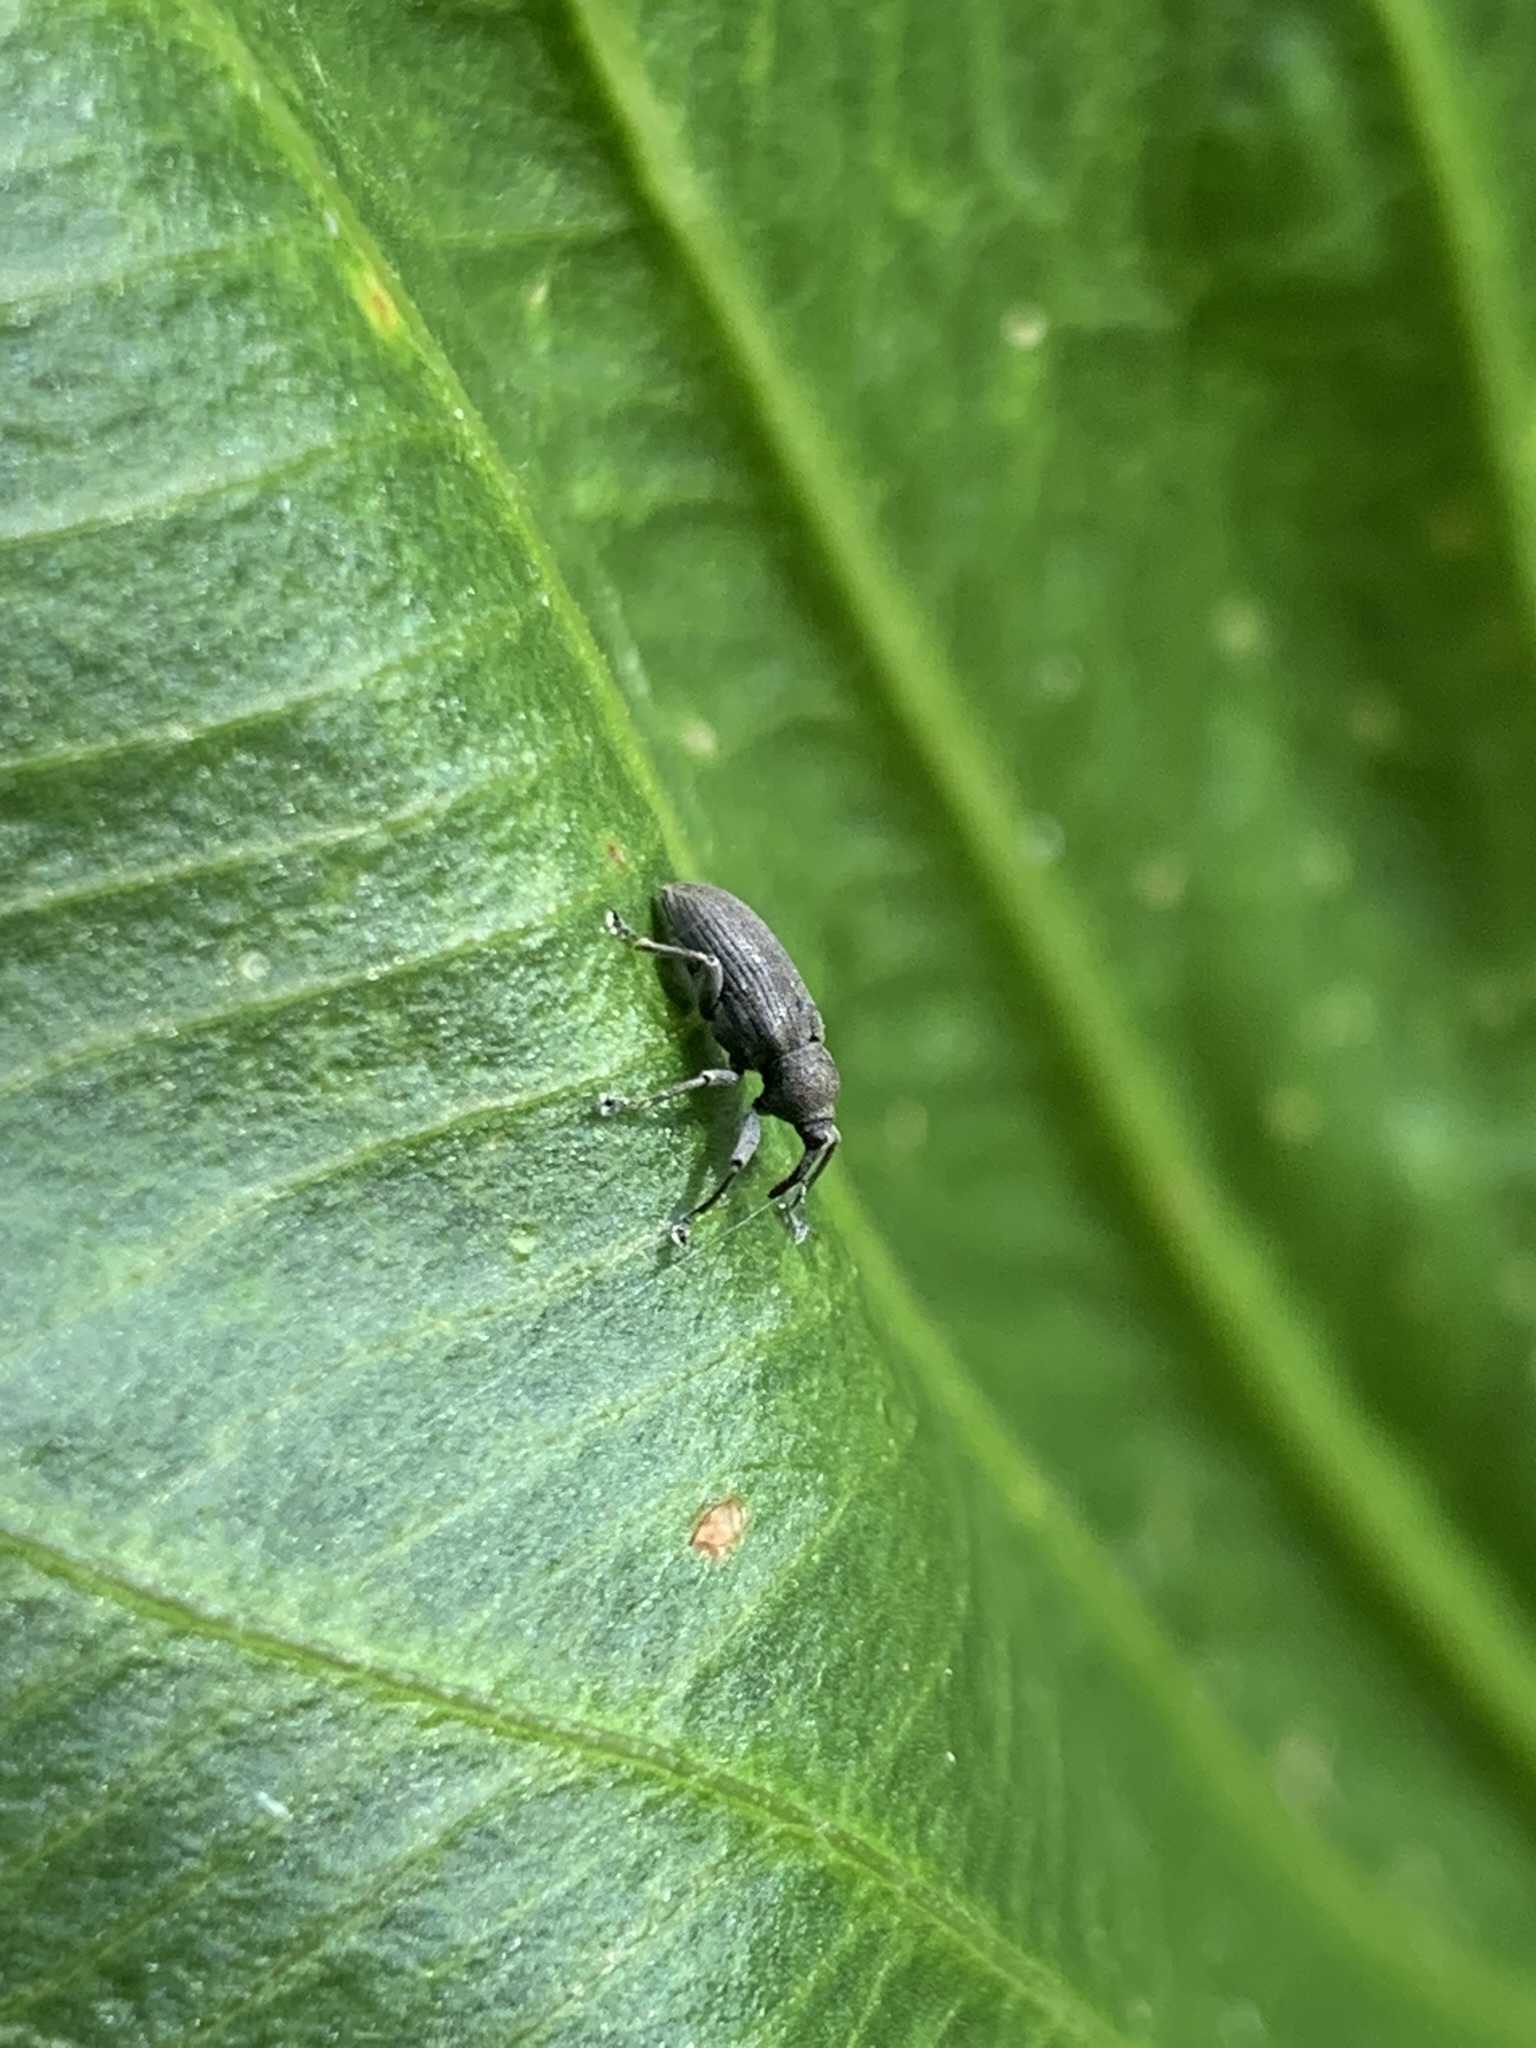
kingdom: Animalia
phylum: Arthropoda
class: Insecta
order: Coleoptera
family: Brachyceridae
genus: Hypselus
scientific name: Hypselus ater
